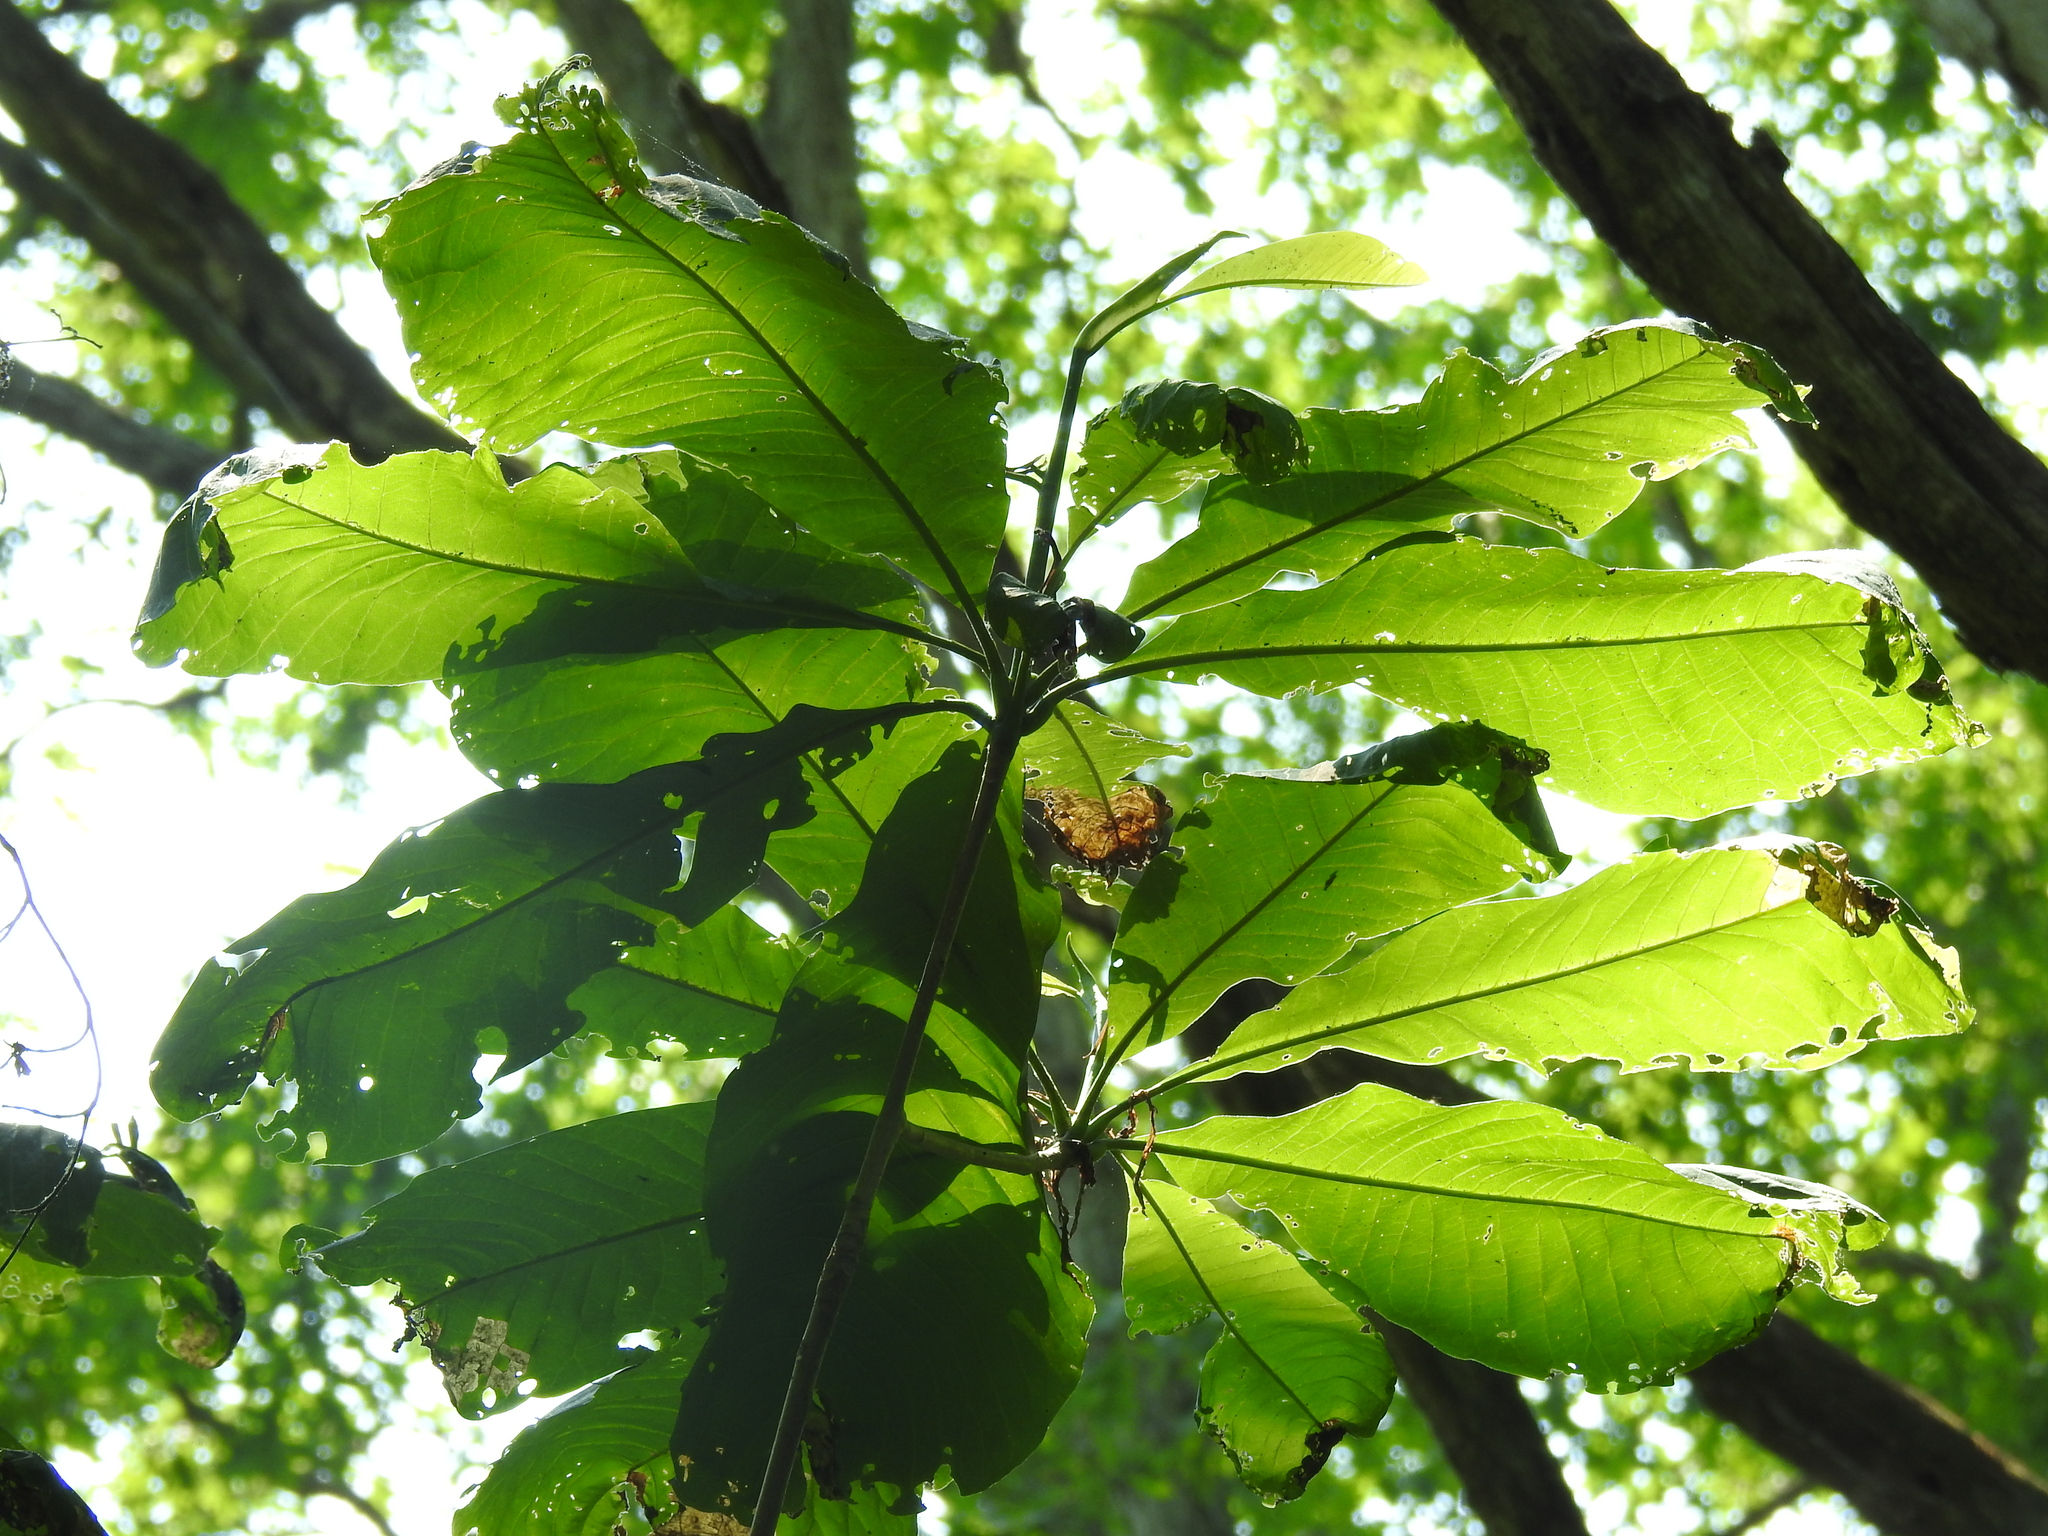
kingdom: Plantae
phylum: Tracheophyta
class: Magnoliopsida
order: Magnoliales
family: Magnoliaceae
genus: Magnolia
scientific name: Magnolia tripetala
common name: Umbrella magnolia
